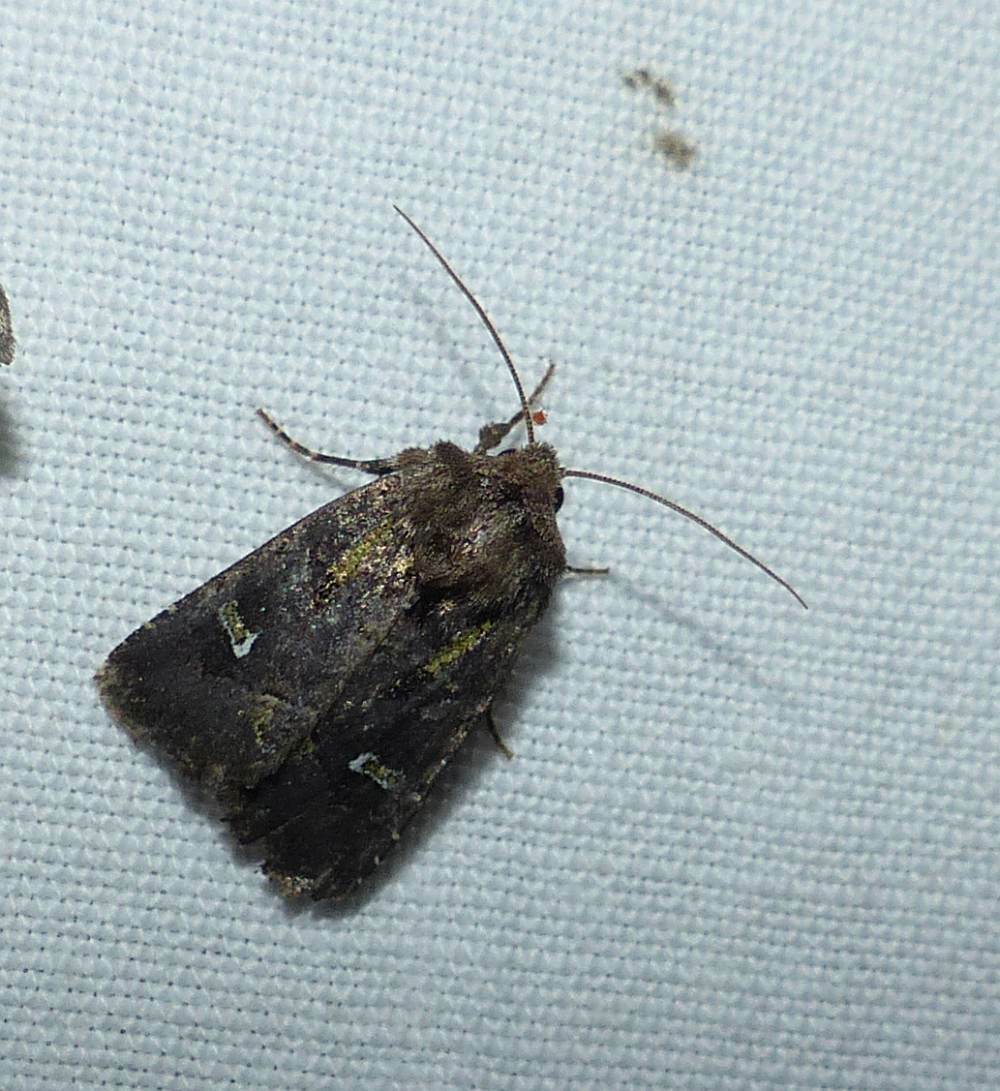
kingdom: Animalia
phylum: Arthropoda
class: Insecta
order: Lepidoptera
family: Noctuidae
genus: Lacinipolia
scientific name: Lacinipolia renigera
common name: Kidney-spotted minor
